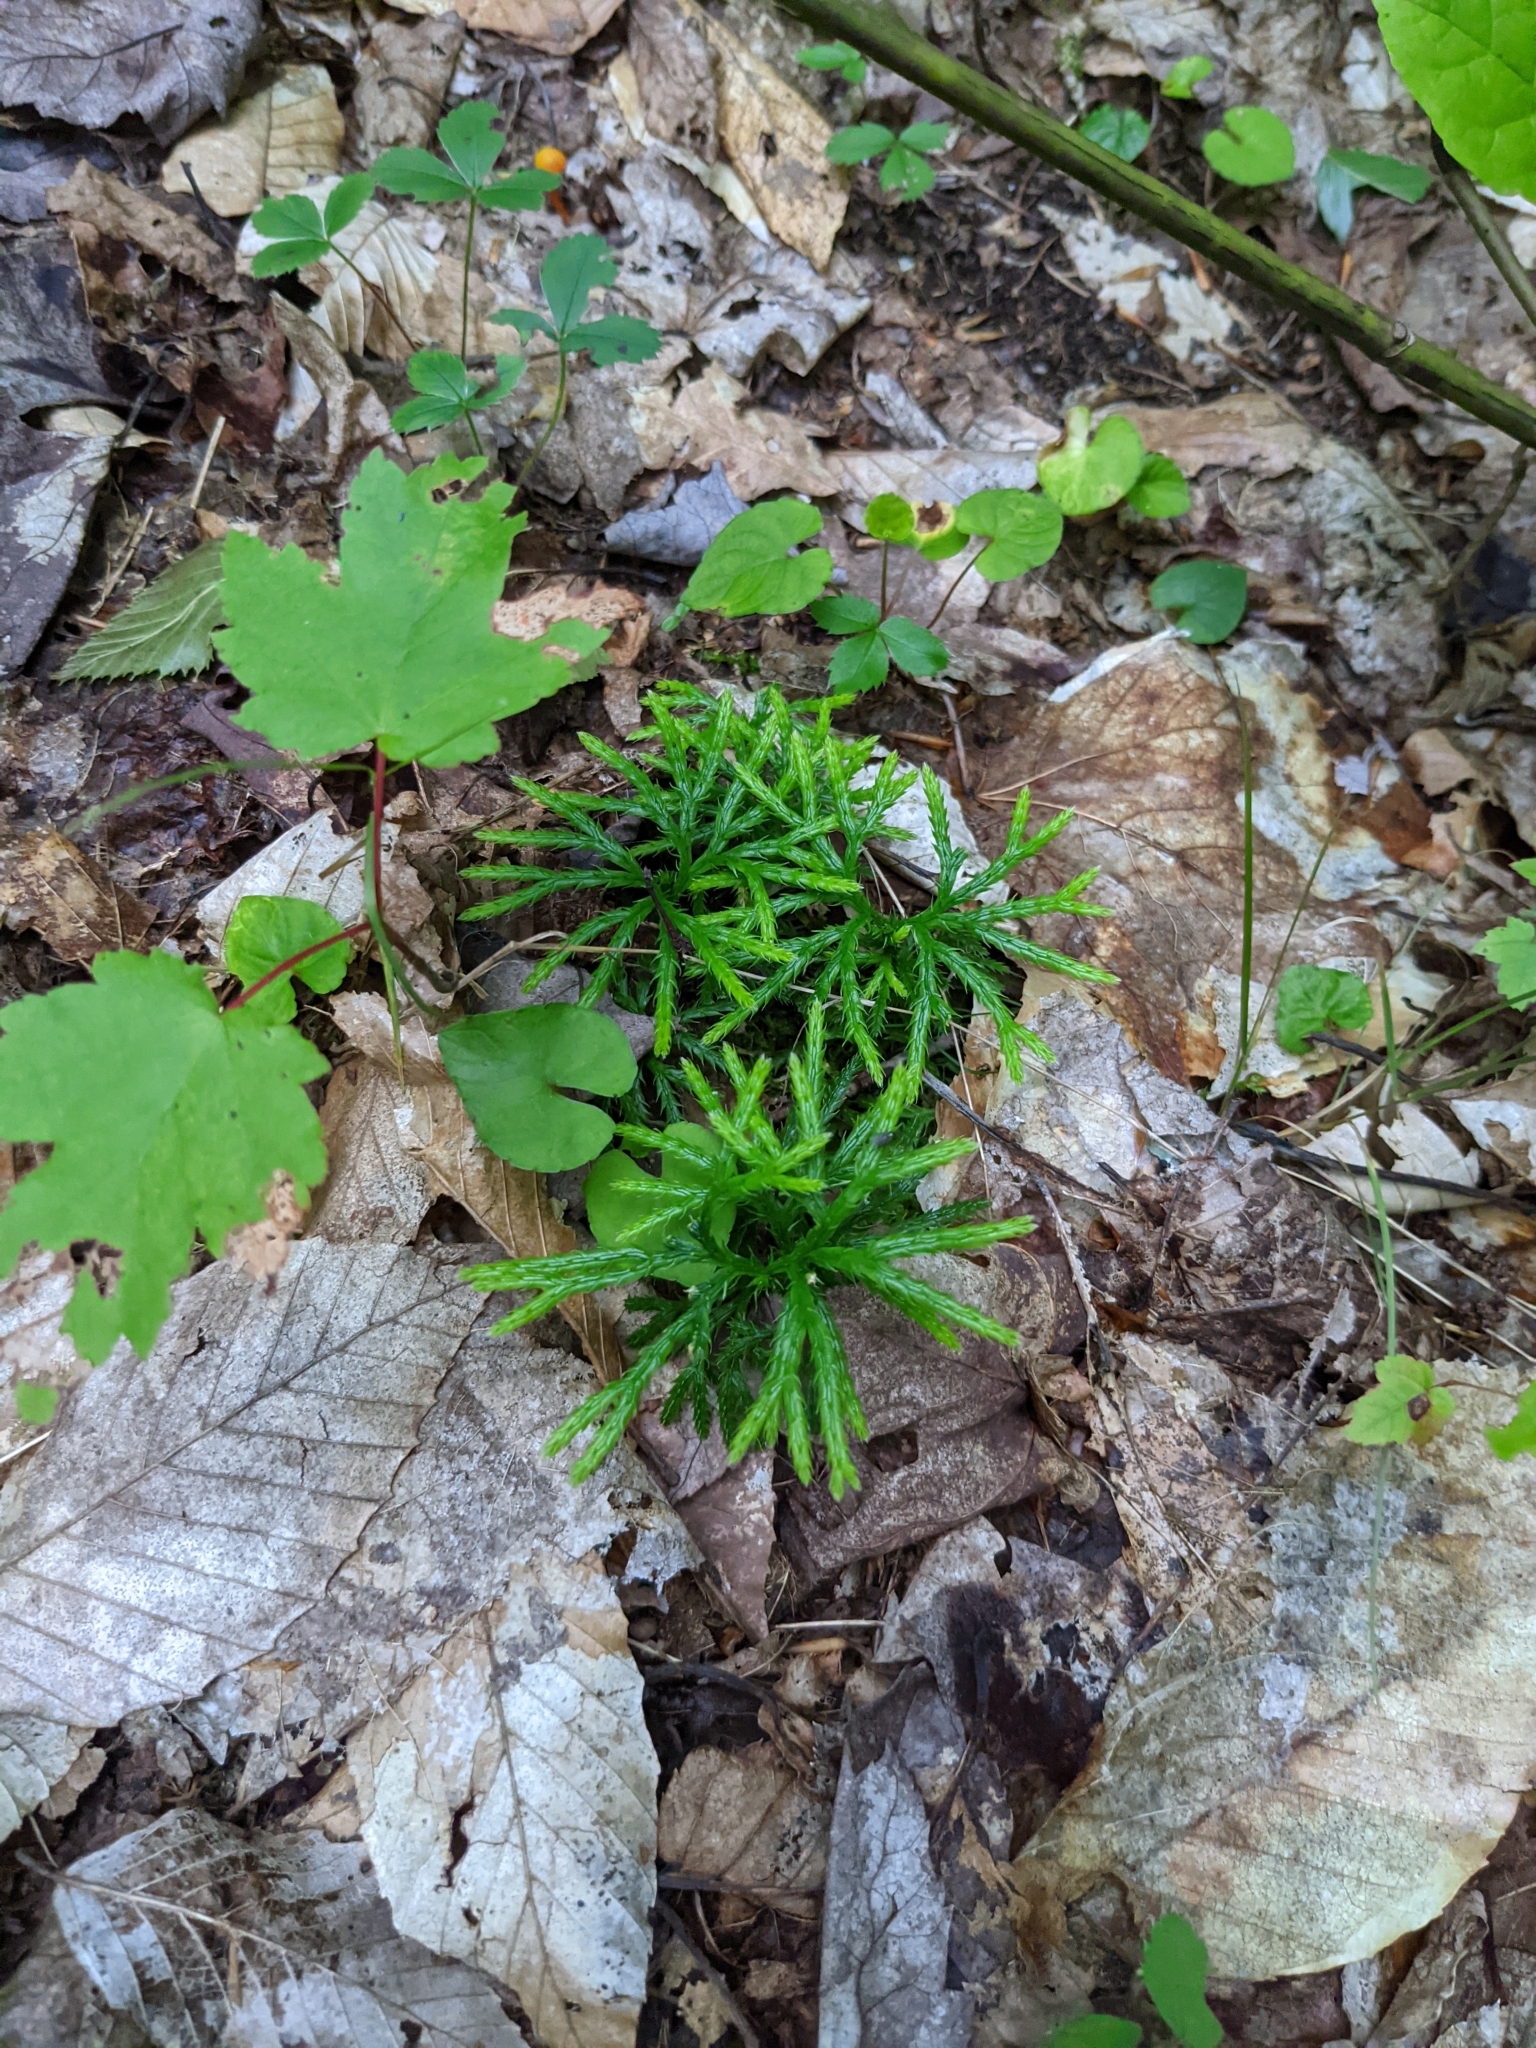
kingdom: Plantae
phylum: Tracheophyta
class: Lycopodiopsida
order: Lycopodiales
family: Lycopodiaceae
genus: Diphasiastrum
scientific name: Diphasiastrum digitatum
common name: Southern running-pine
